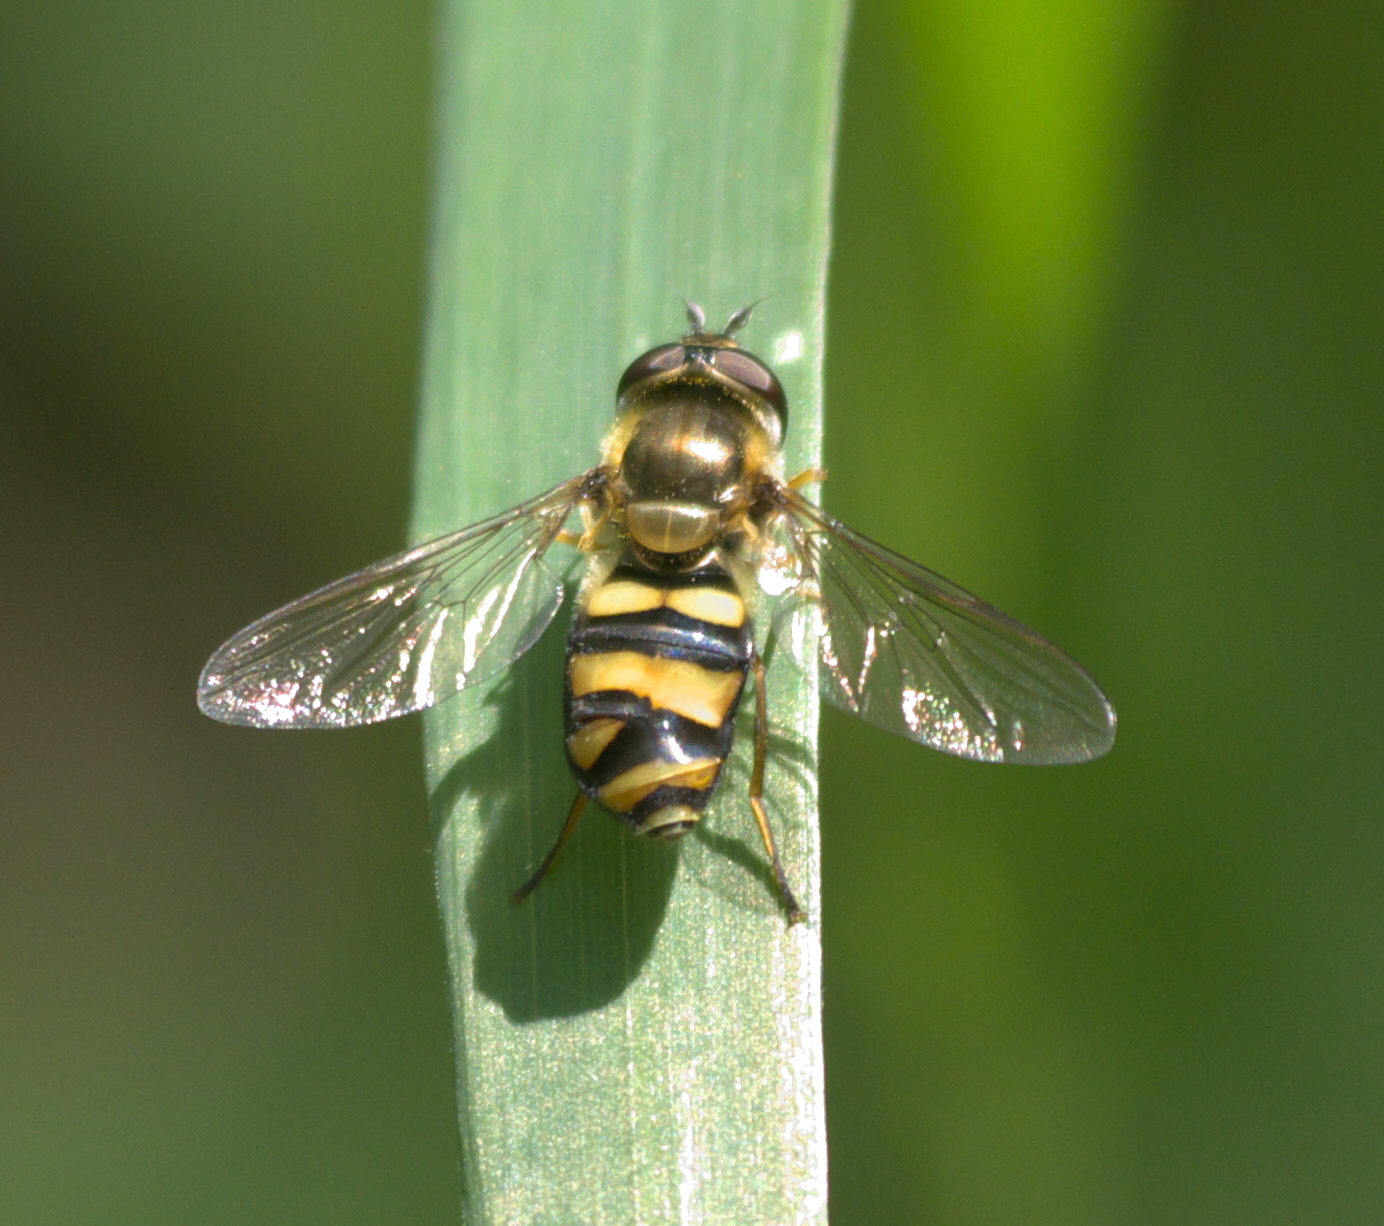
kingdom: Animalia
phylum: Arthropoda
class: Insecta
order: Diptera
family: Syrphidae
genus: Eupeodes
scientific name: Eupeodes
